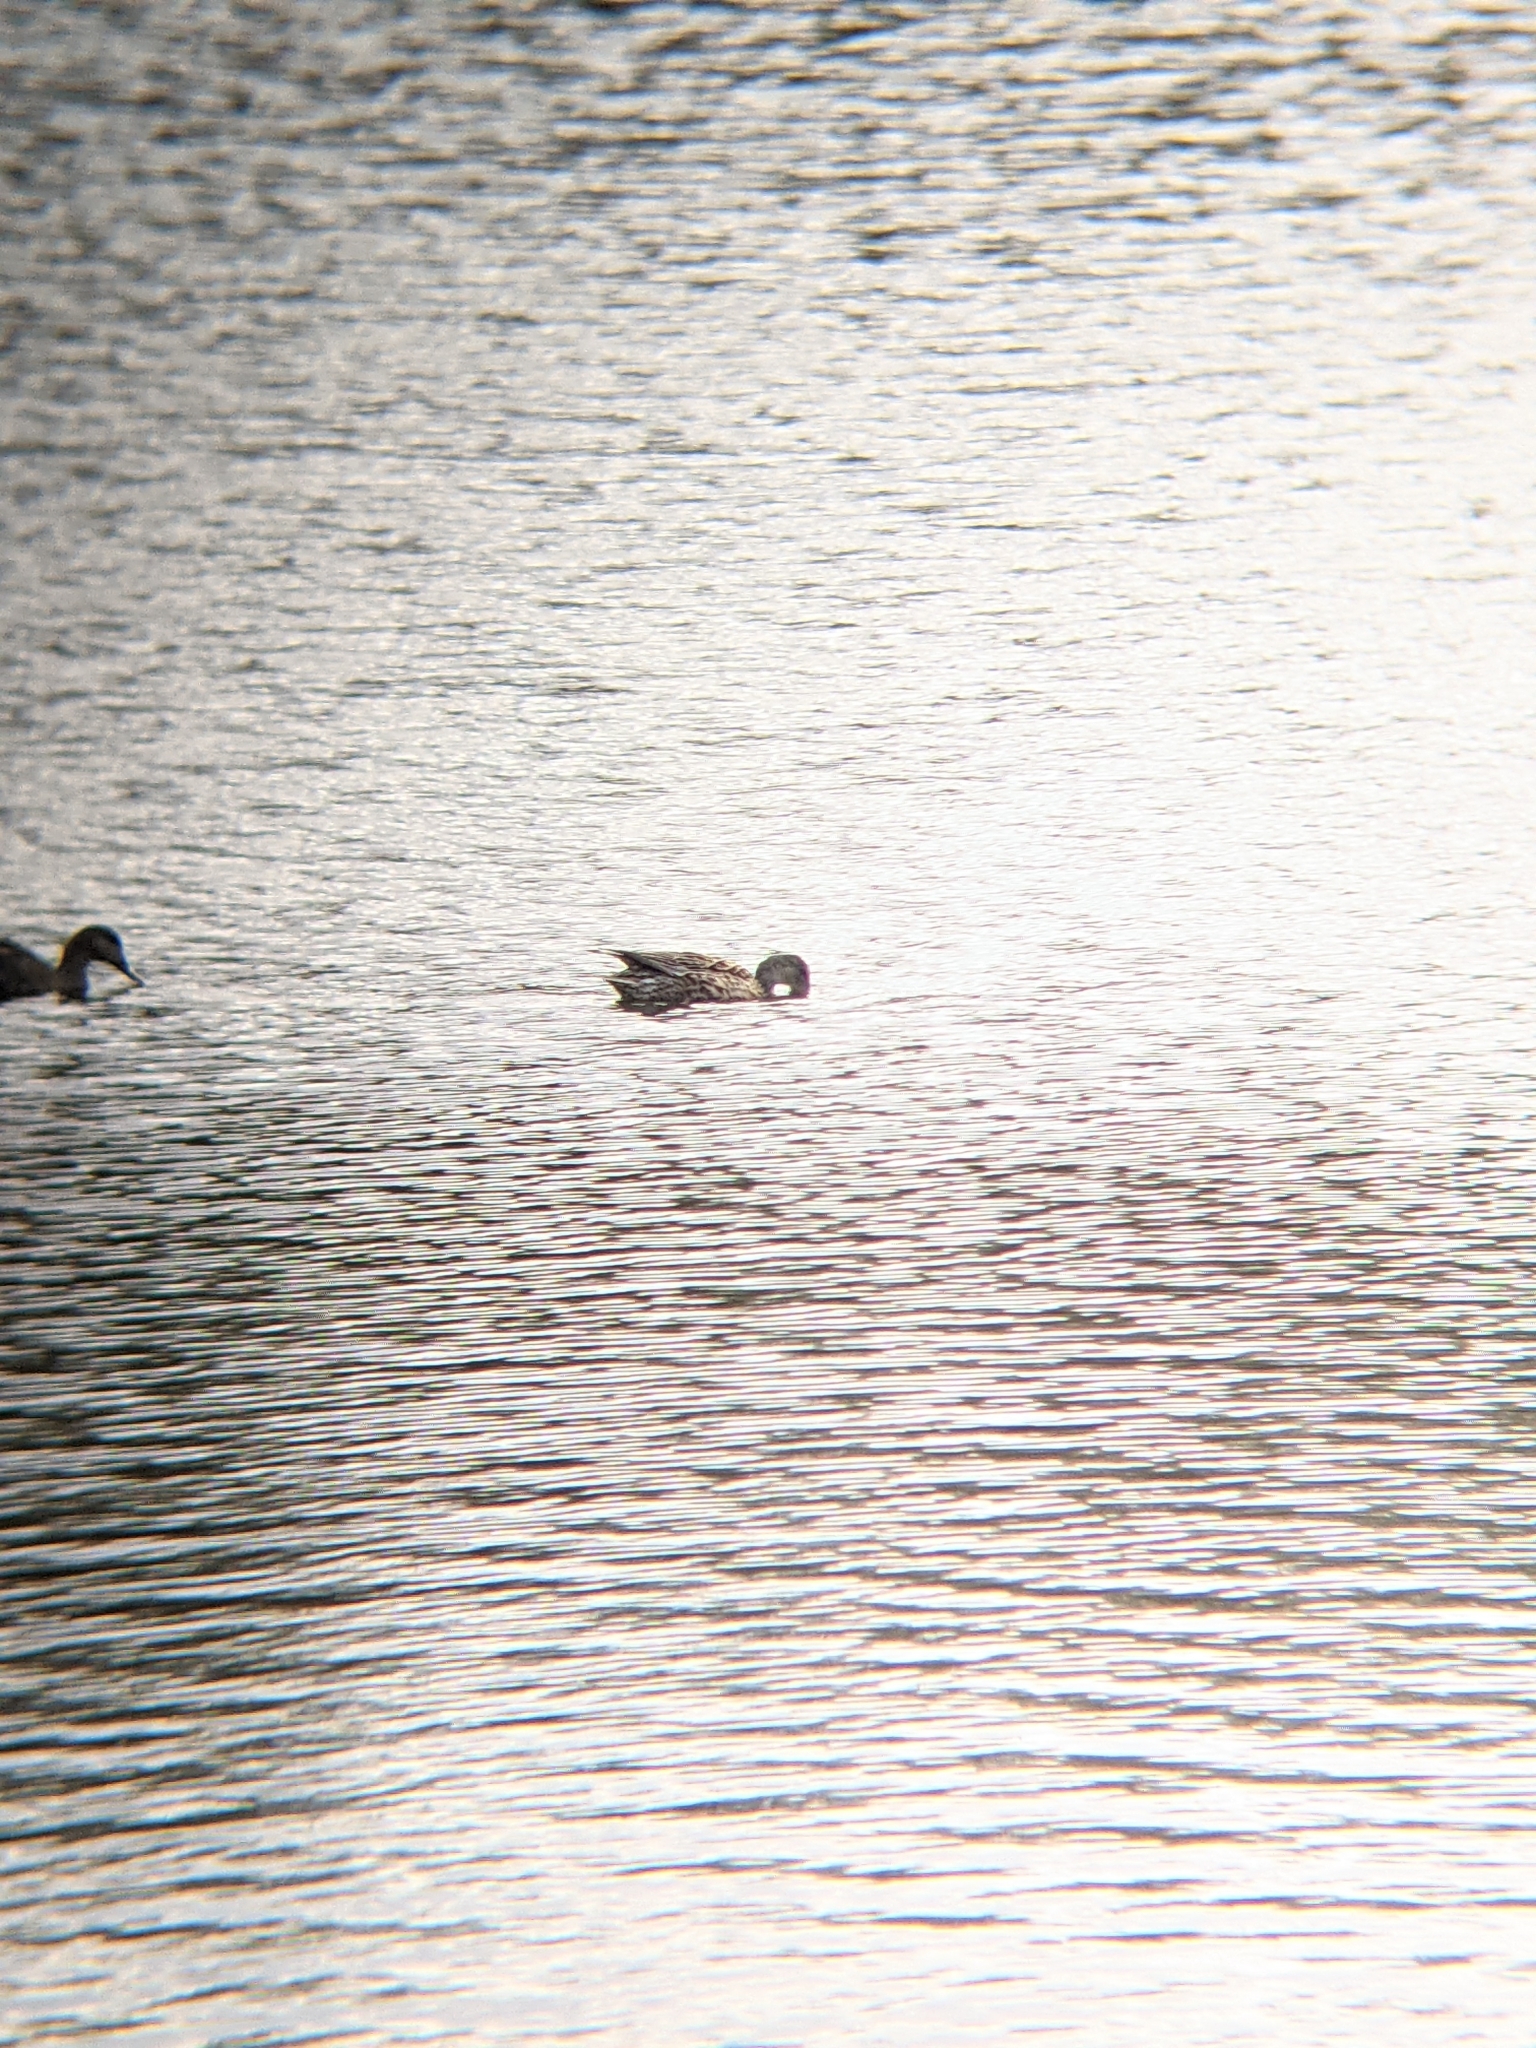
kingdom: Animalia
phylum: Chordata
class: Aves
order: Anseriformes
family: Anatidae
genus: Mareca
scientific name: Mareca strepera
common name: Gadwall
